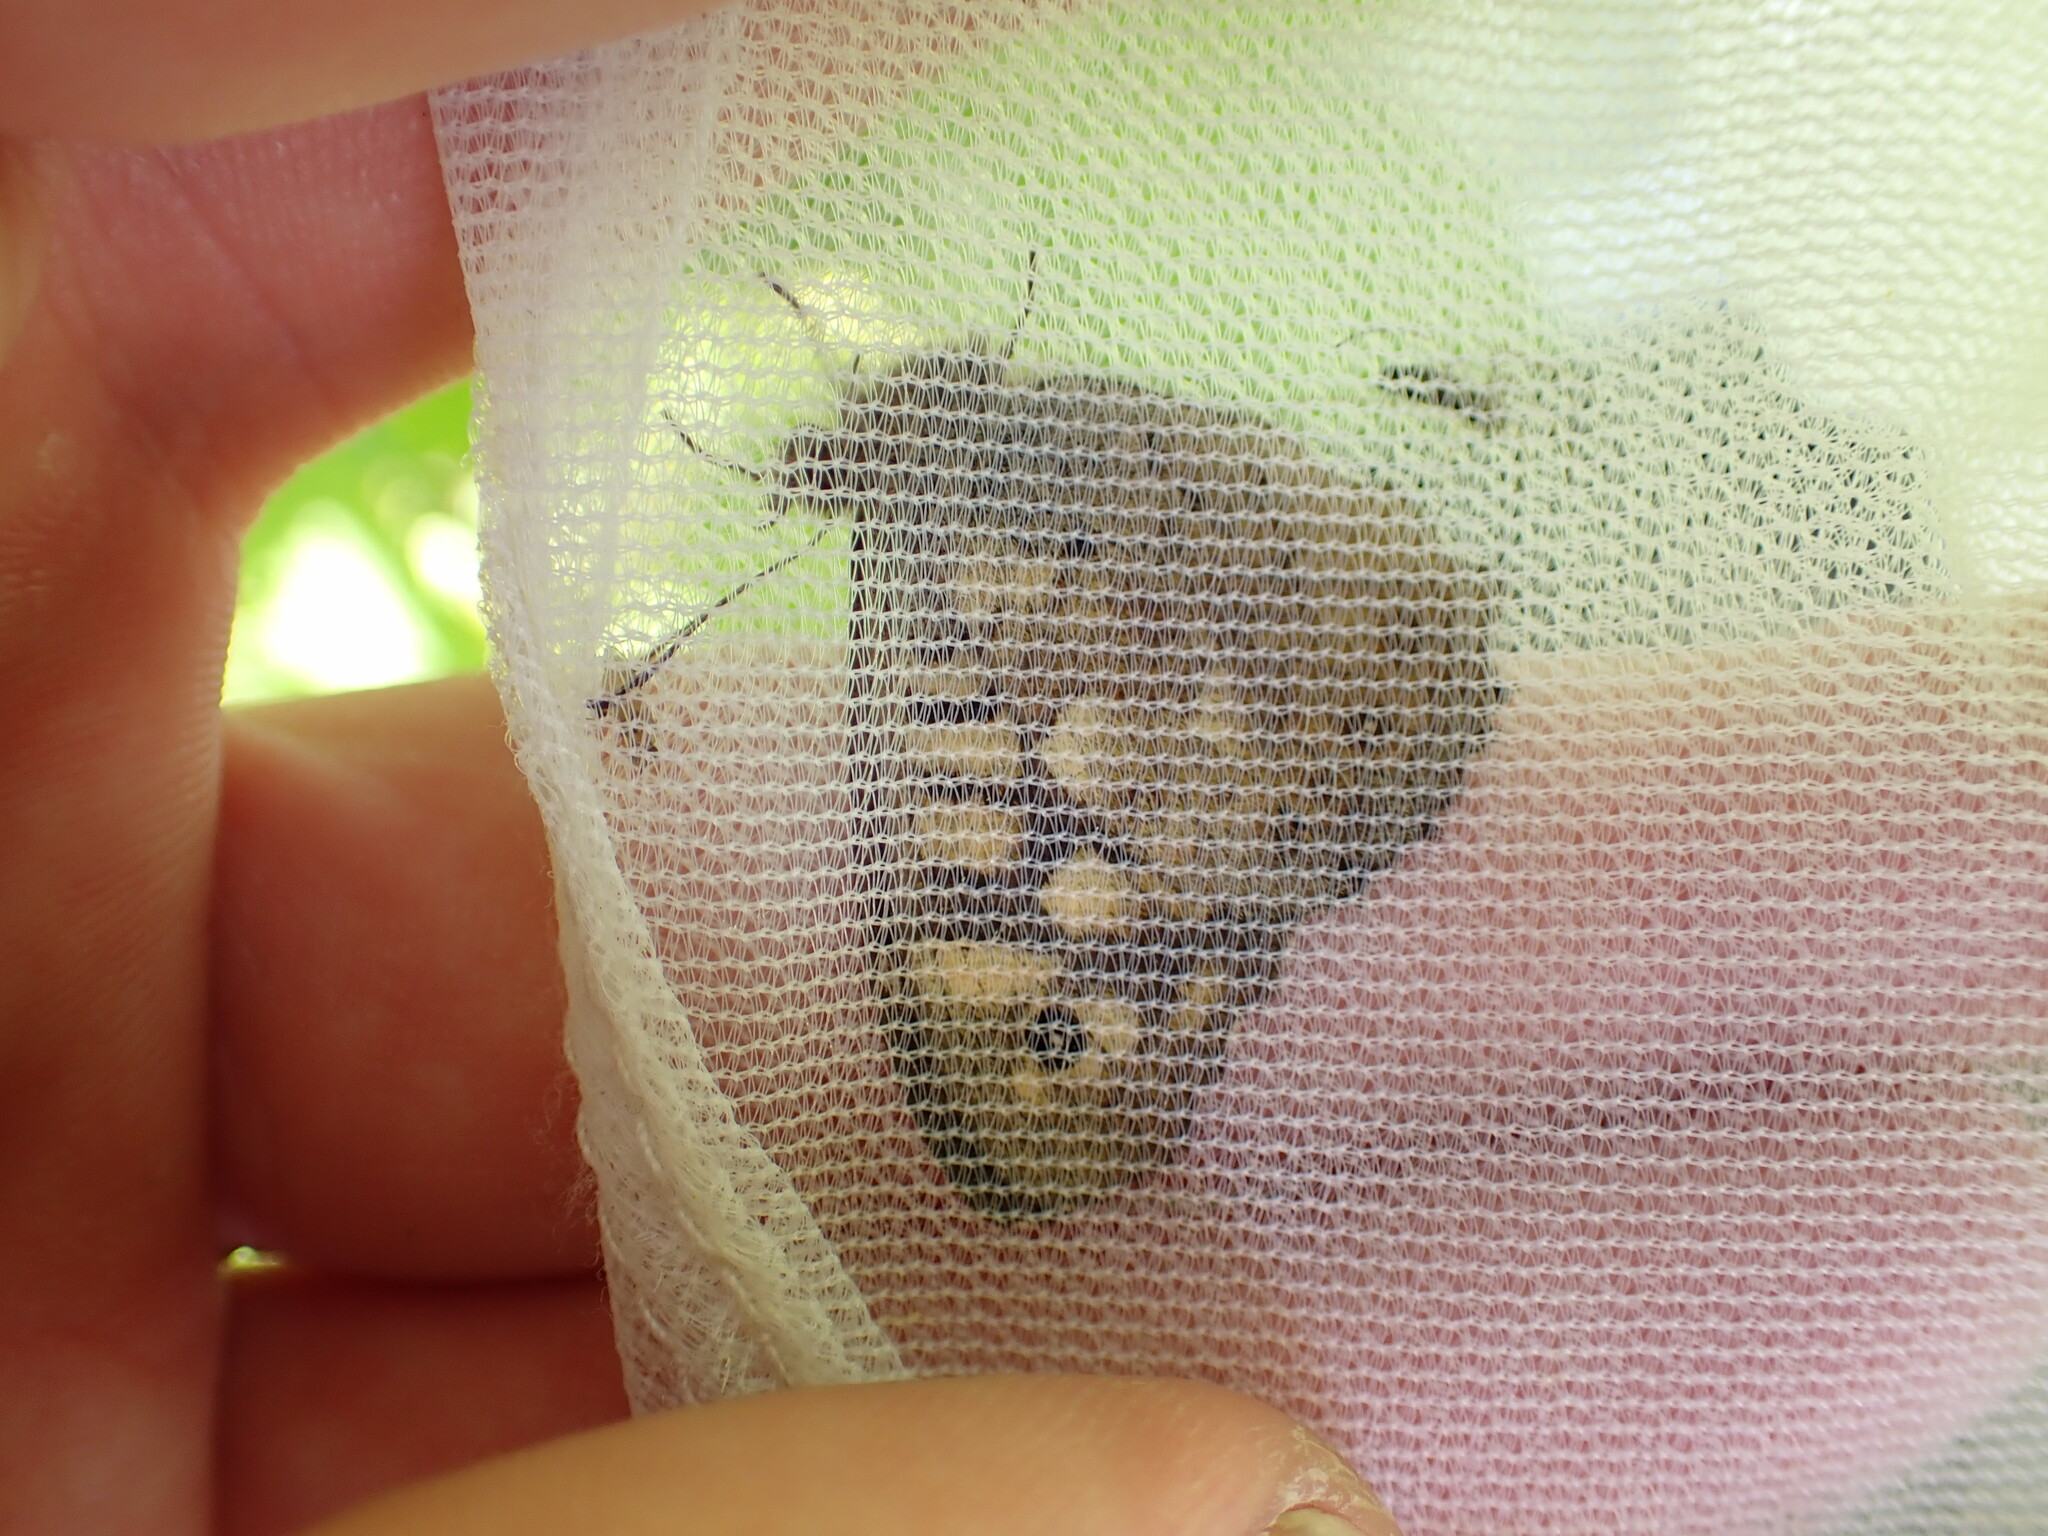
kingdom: Animalia
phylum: Arthropoda
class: Insecta
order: Lepidoptera
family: Nymphalidae
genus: Pararge
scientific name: Pararge aegeria
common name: Speckled wood
